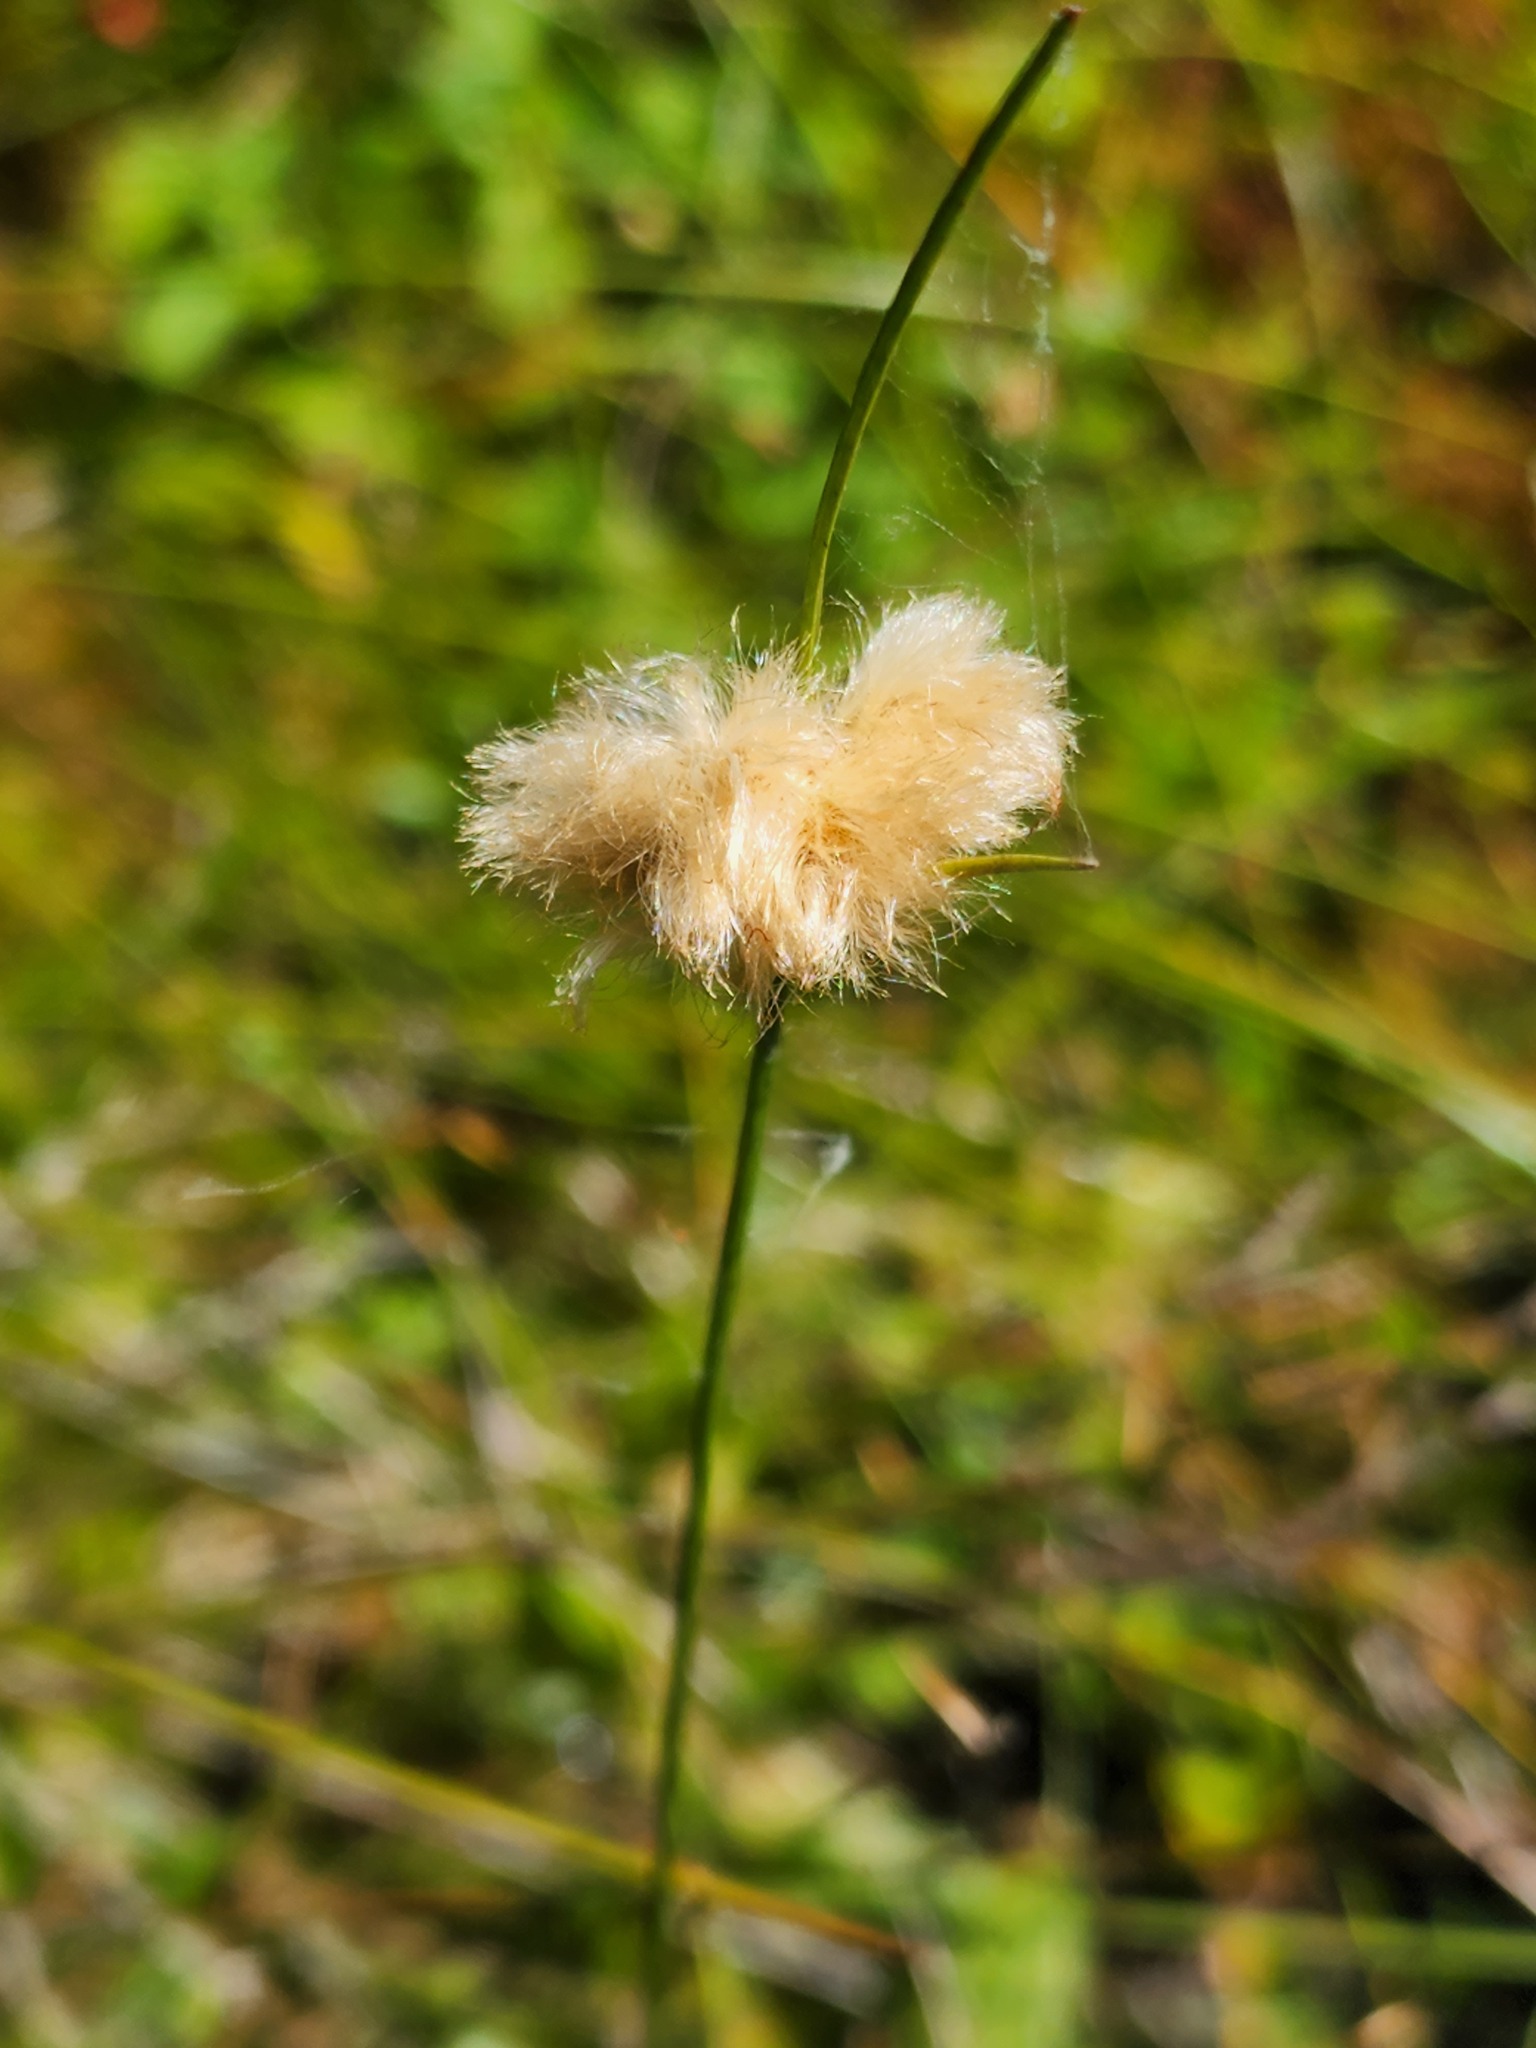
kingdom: Plantae
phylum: Tracheophyta
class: Liliopsida
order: Poales
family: Cyperaceae
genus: Eriophorum
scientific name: Eriophorum virginicum
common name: Tawny cottongrass
